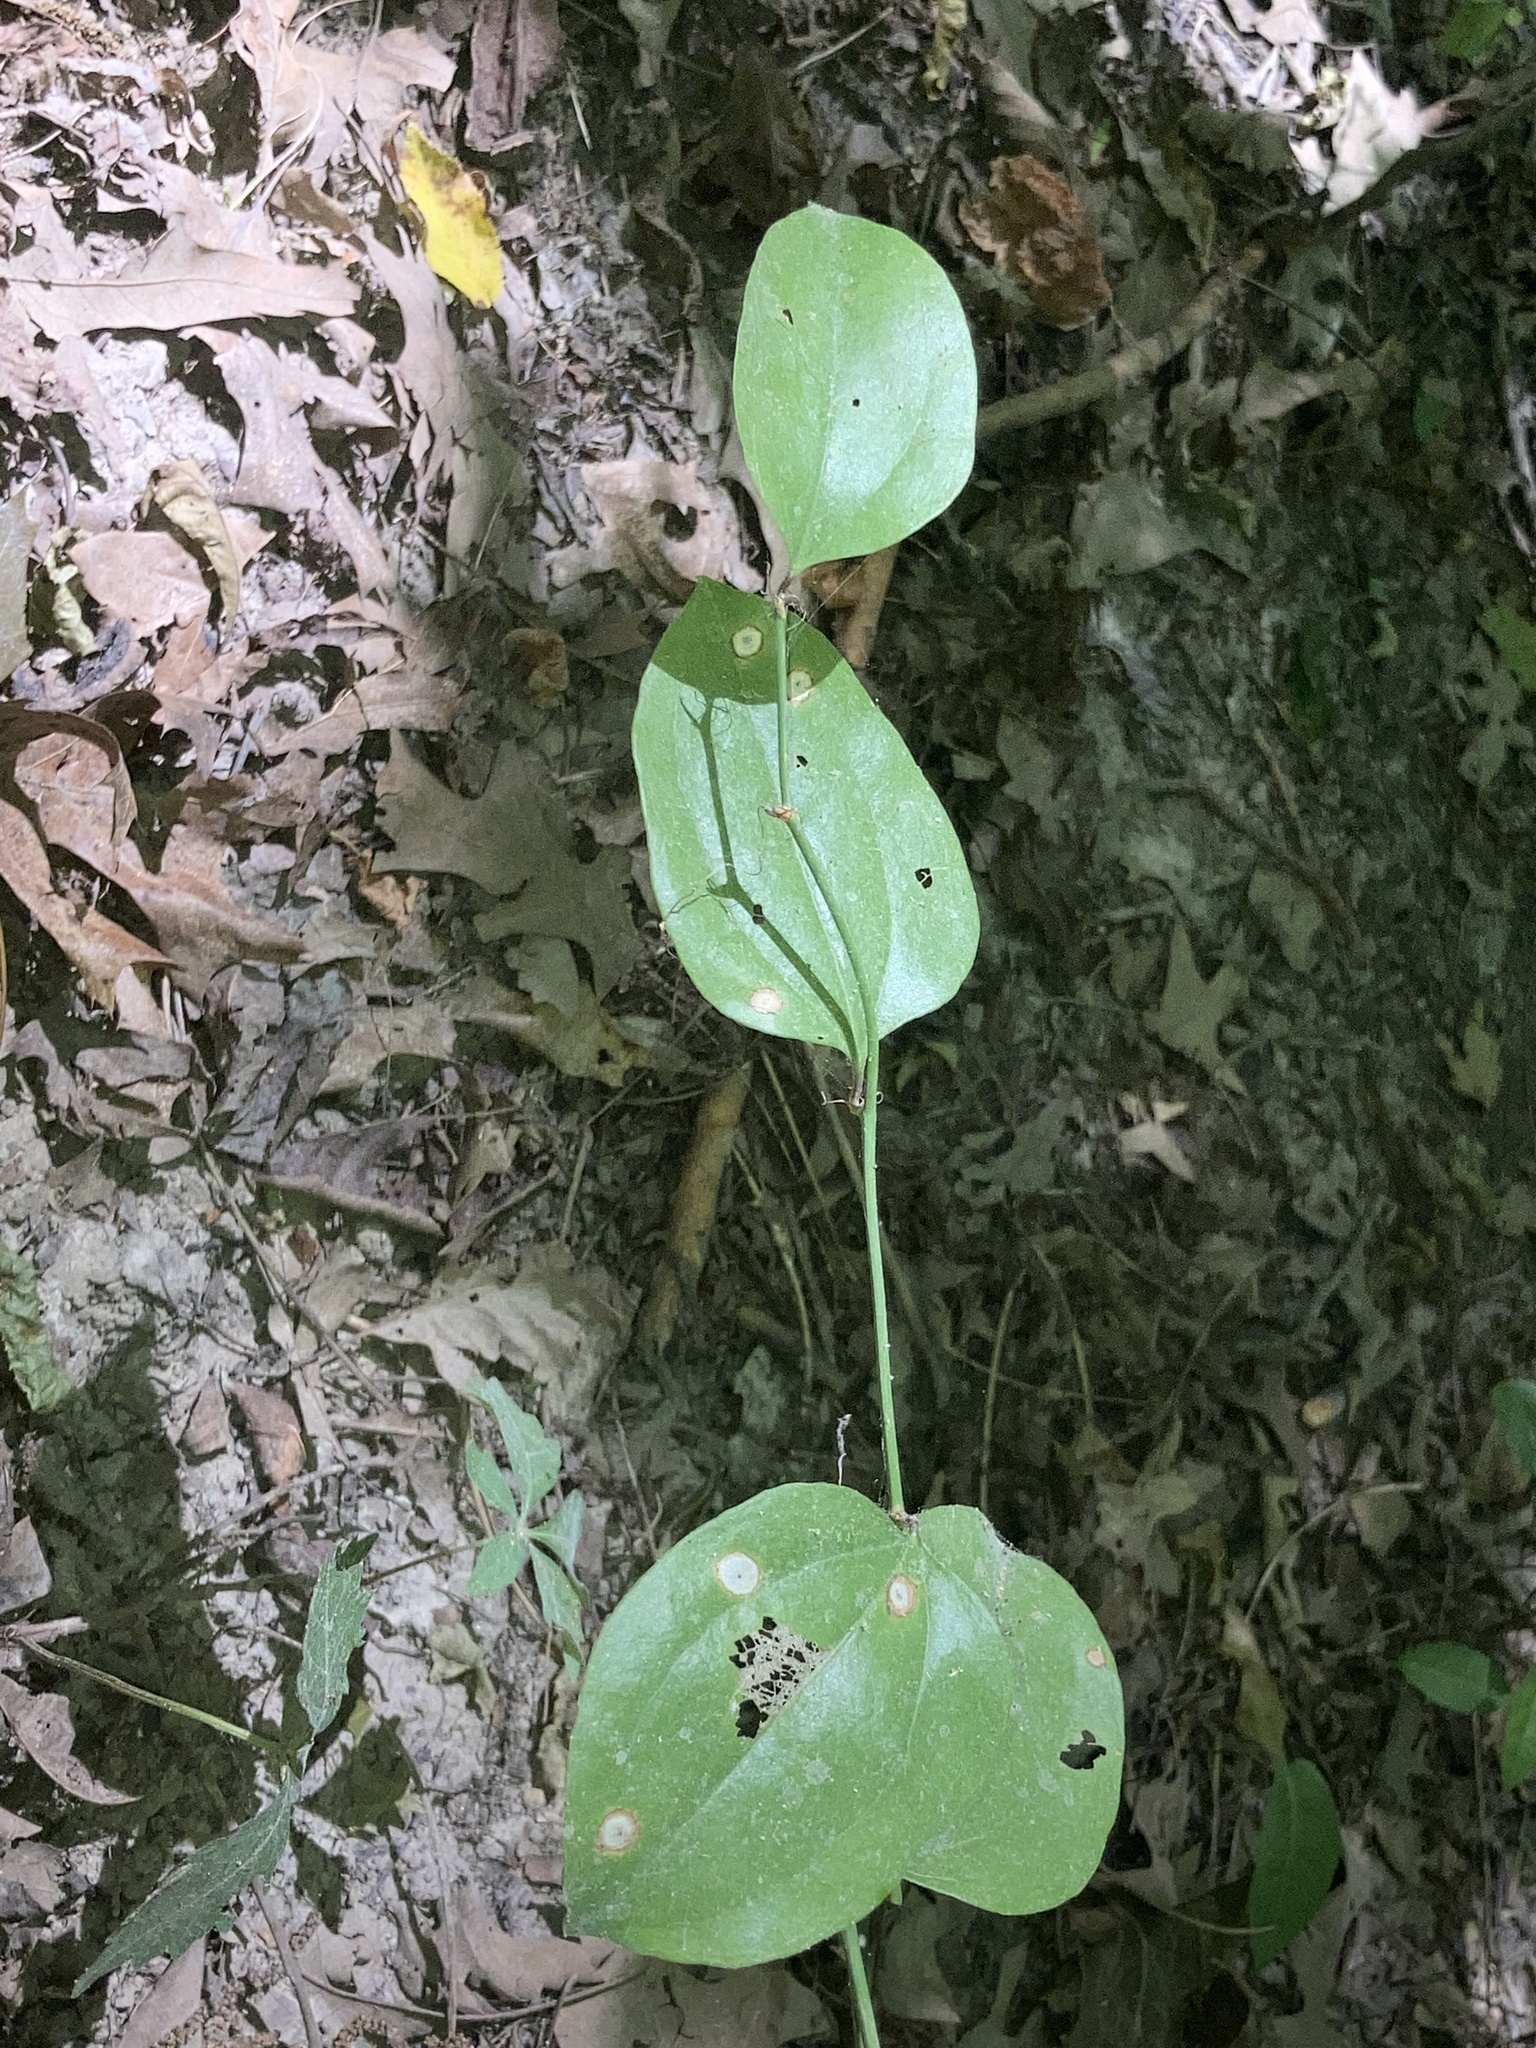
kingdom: Plantae
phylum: Tracheophyta
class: Liliopsida
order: Liliales
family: Smilacaceae
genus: Smilax
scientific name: Smilax glauca
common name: Cat greenbrier
